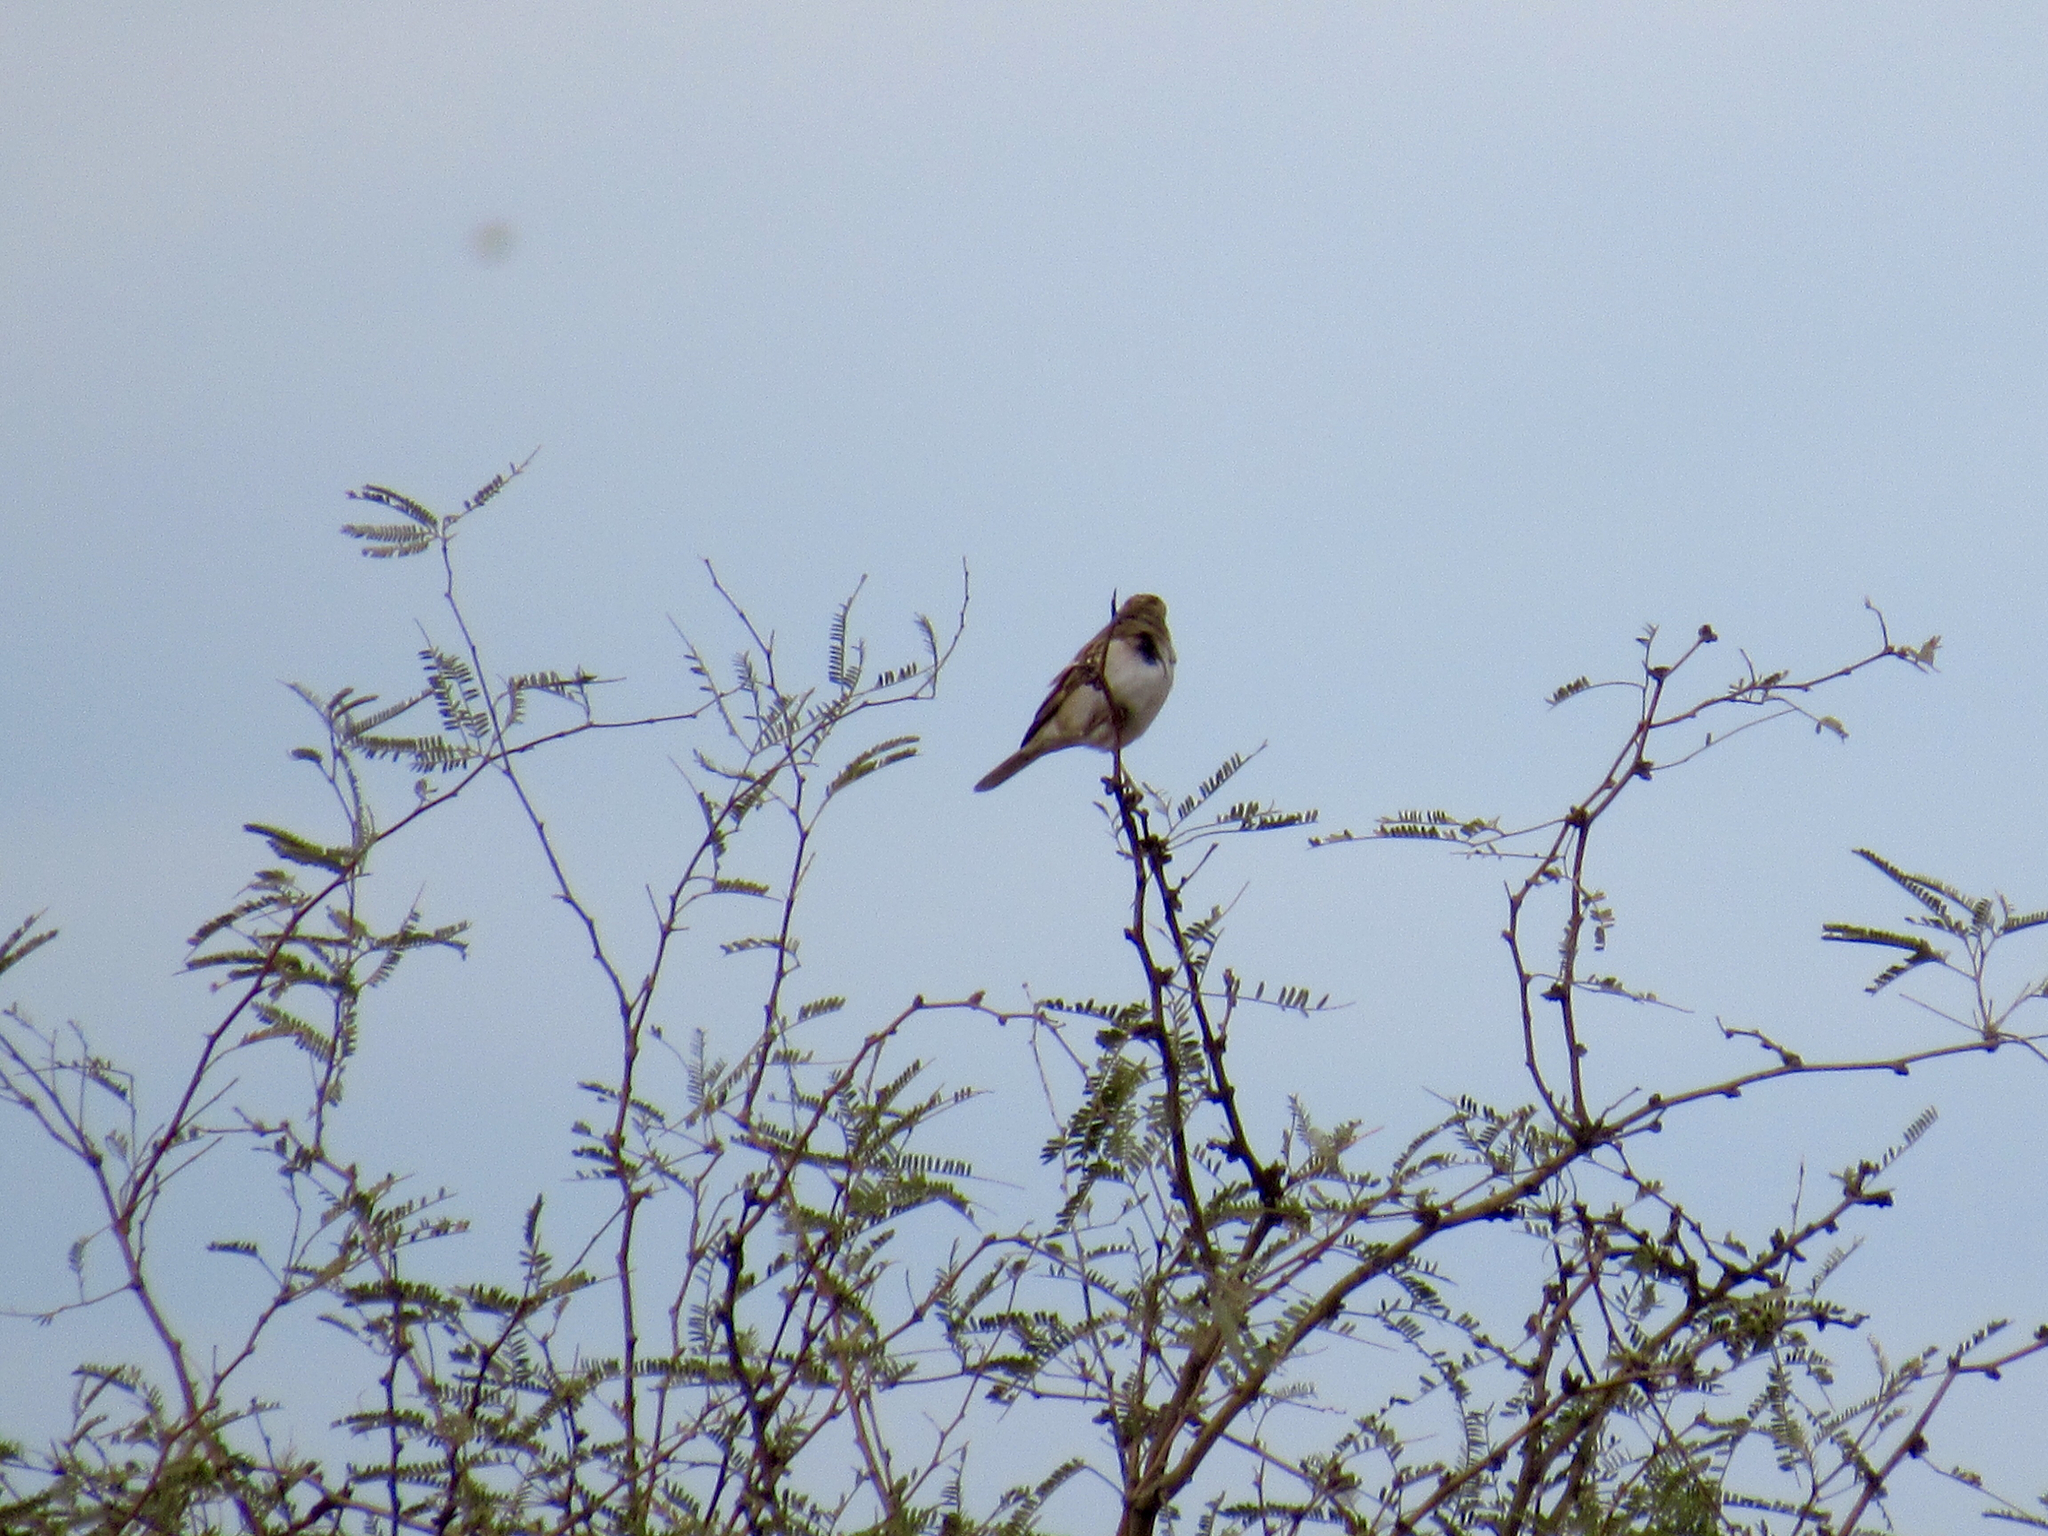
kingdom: Animalia
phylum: Chordata
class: Aves
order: Passeriformes
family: Passerellidae
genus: Chondestes
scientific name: Chondestes grammacus
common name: Lark sparrow
